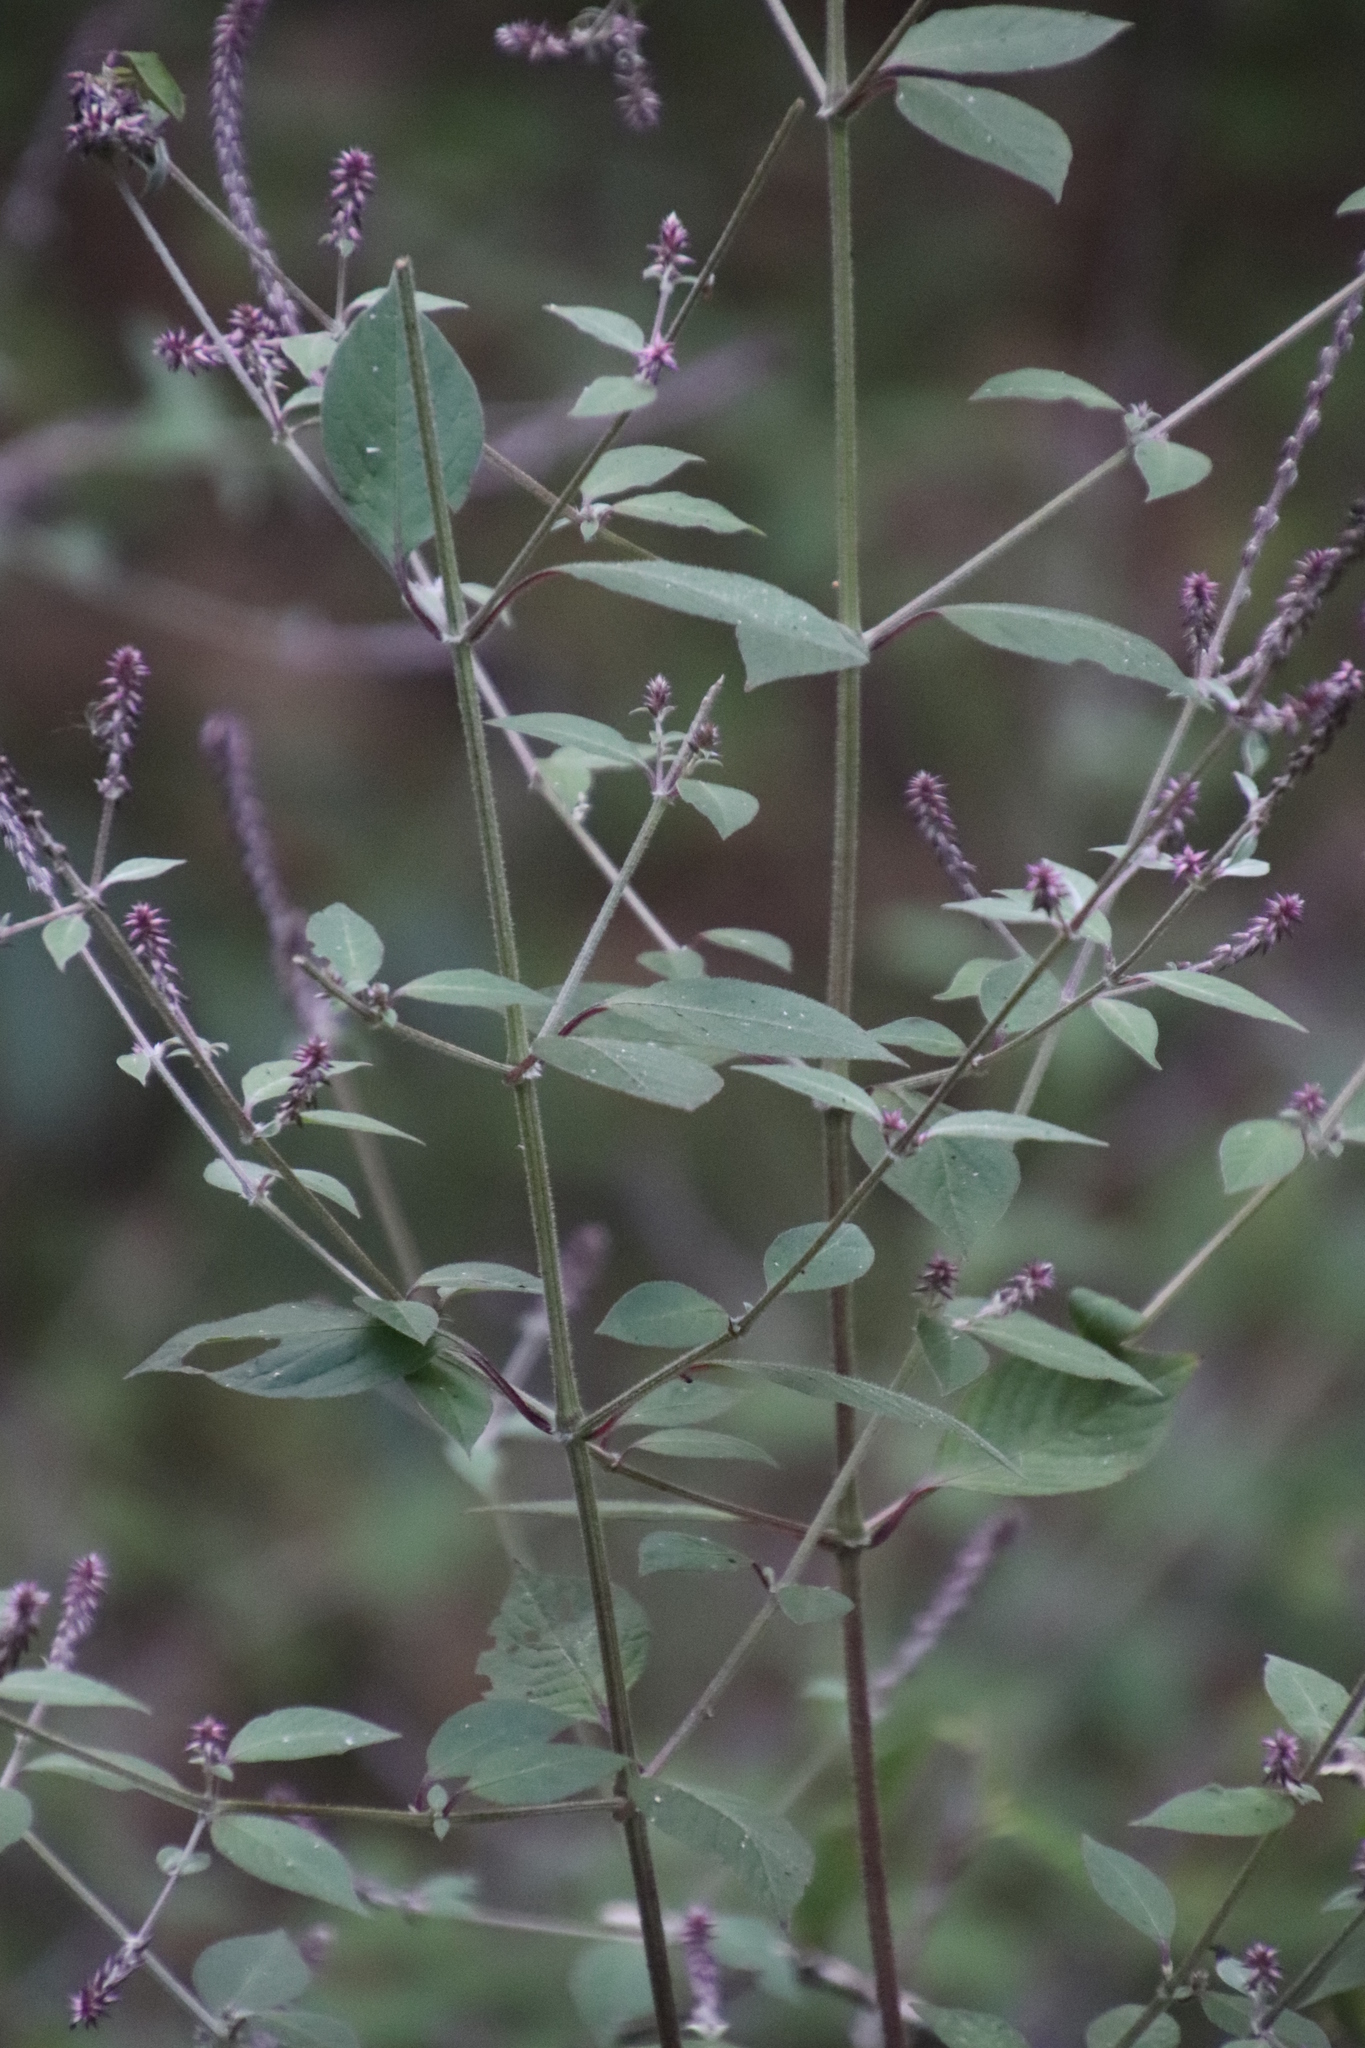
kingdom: Plantae
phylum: Tracheophyta
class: Magnoliopsida
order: Caryophyllales
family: Amaranthaceae
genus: Achyranthes
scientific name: Achyranthes aspera
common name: Devil's horsewhip
